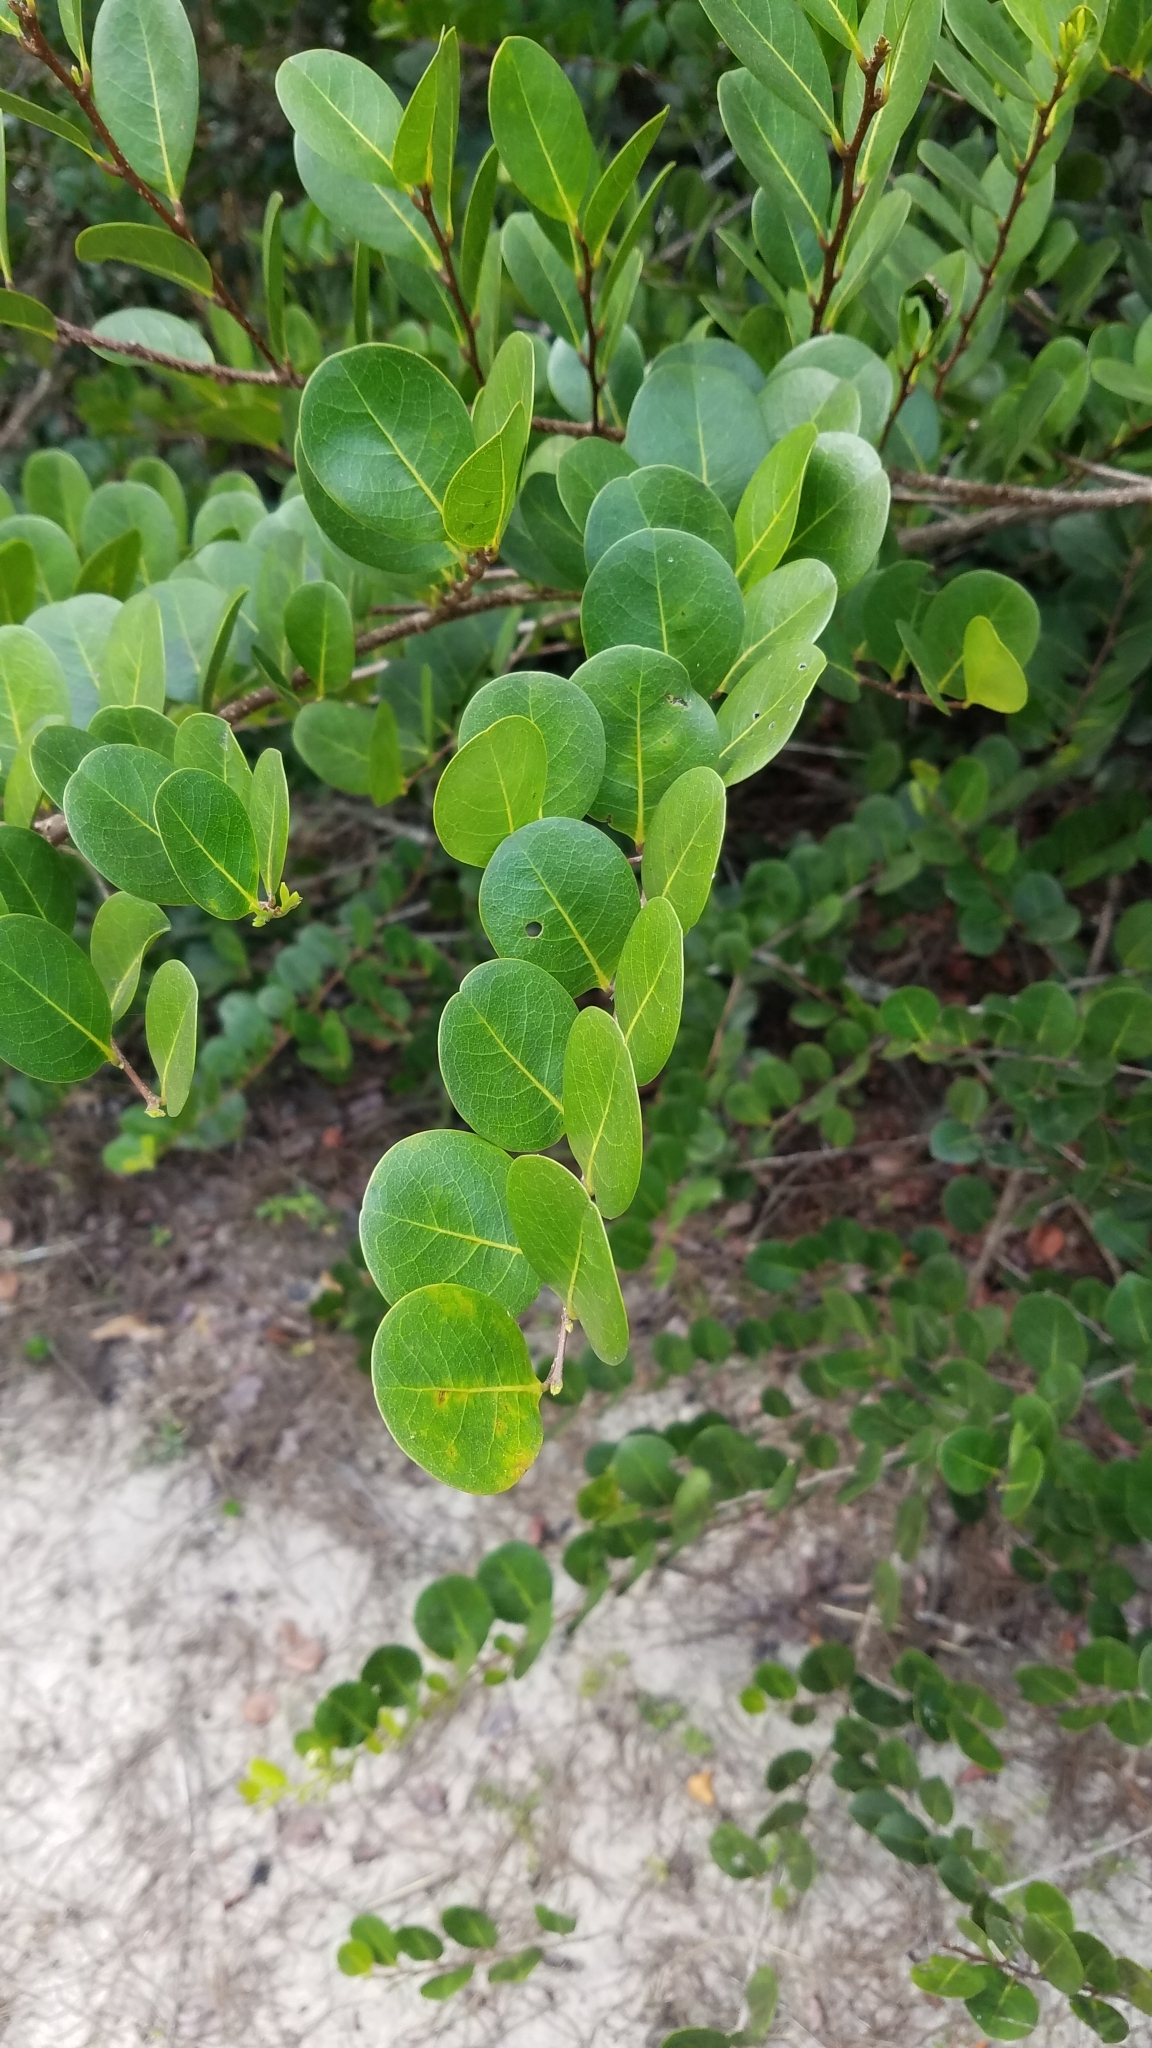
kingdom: Plantae
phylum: Tracheophyta
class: Magnoliopsida
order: Malpighiales
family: Chrysobalanaceae
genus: Chrysobalanus
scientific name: Chrysobalanus icaco
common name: Coco plum
